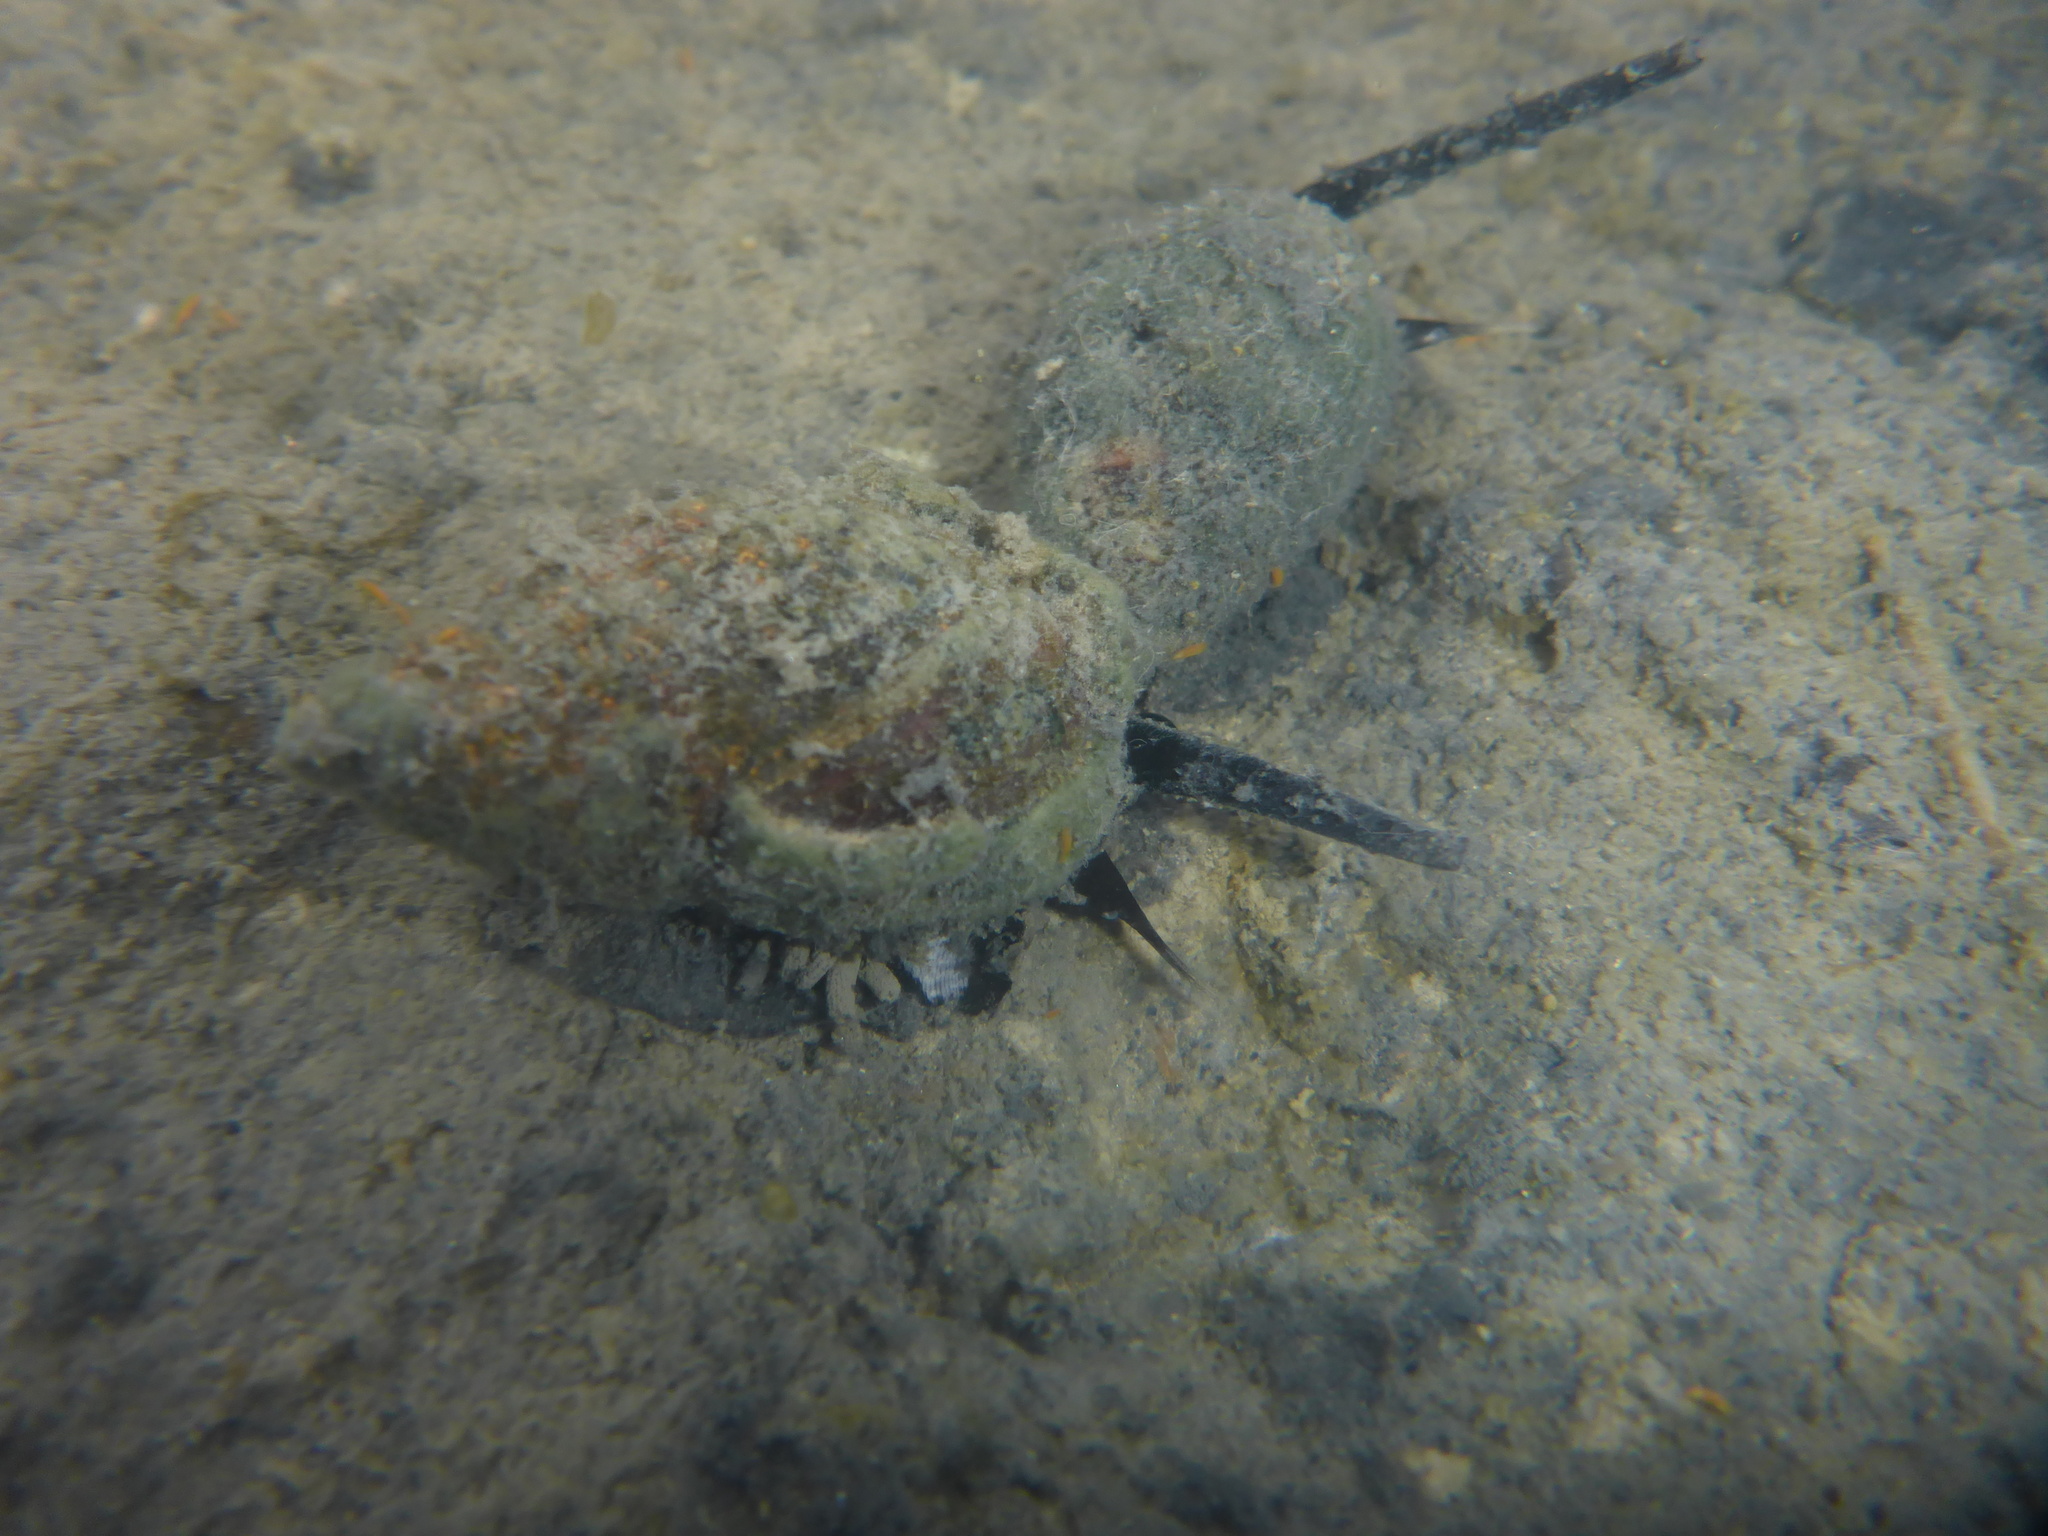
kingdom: Animalia
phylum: Mollusca
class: Gastropoda
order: Neogastropoda
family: Nassariidae
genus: Ilyanassa
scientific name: Ilyanassa obsoleta
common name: Eastern mudsnail
